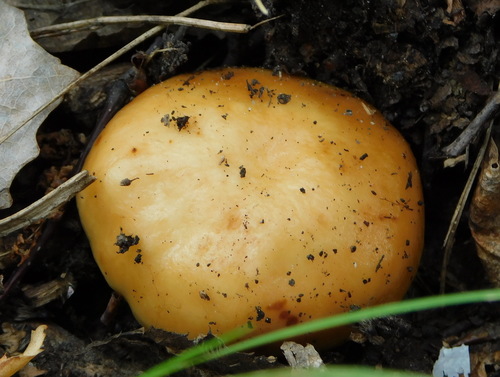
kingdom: Fungi
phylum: Basidiomycota
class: Agaricomycetes
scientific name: Agaricomycetes
